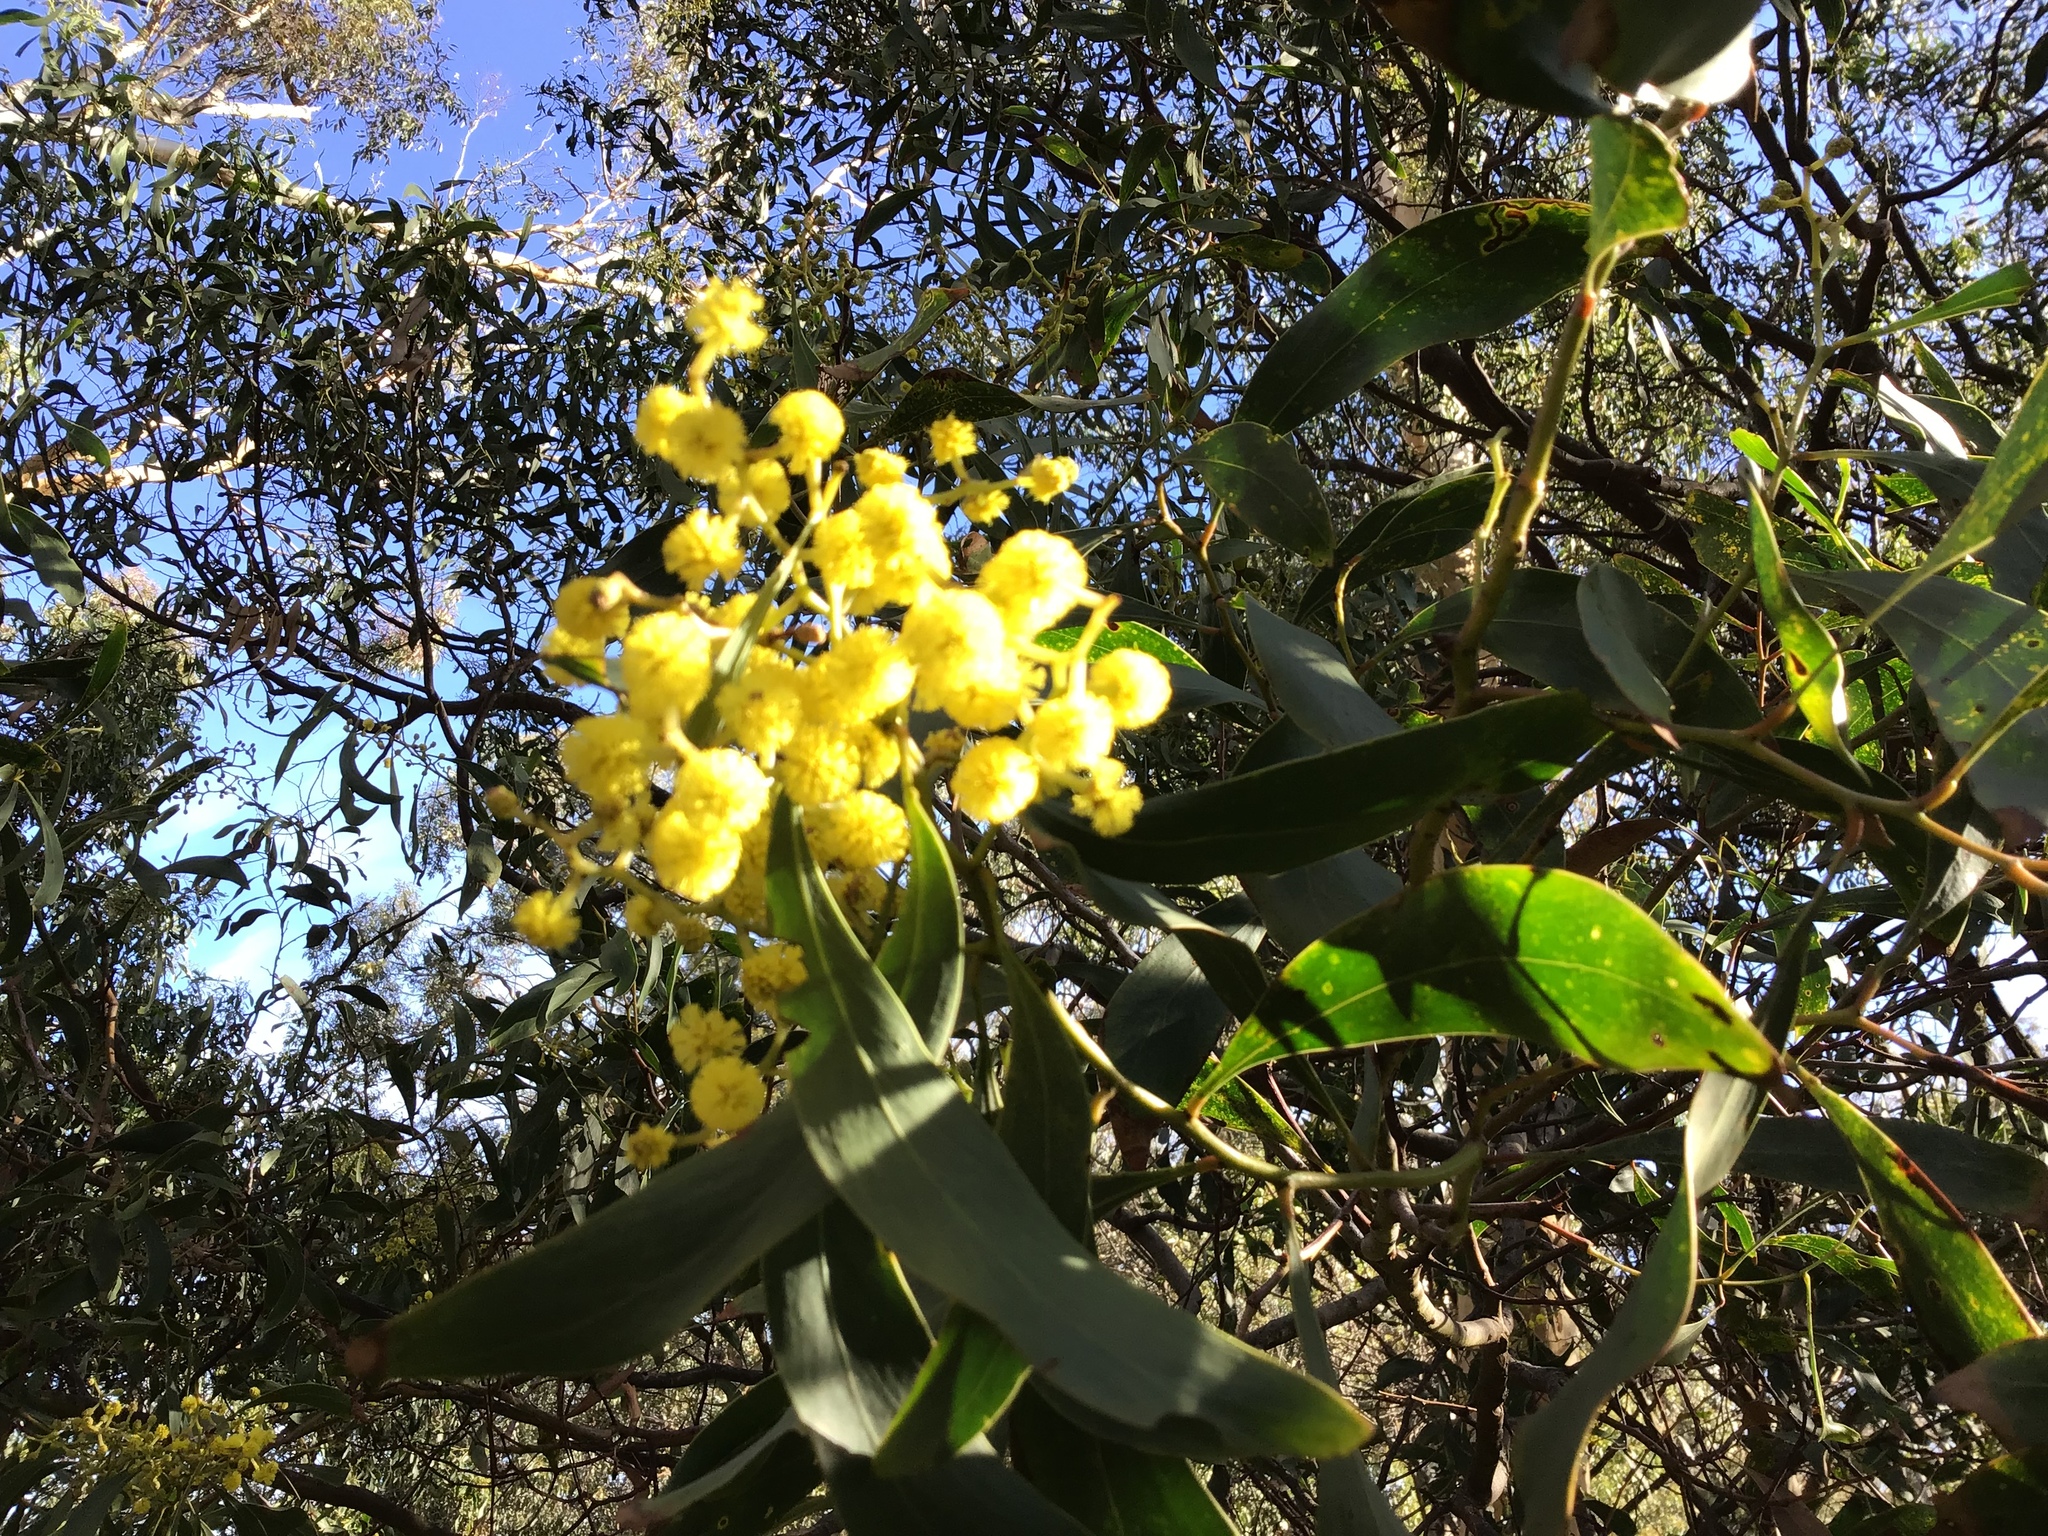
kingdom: Plantae
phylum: Tracheophyta
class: Magnoliopsida
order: Fabales
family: Fabaceae
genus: Acacia
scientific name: Acacia pycnantha
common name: Golden wattle
